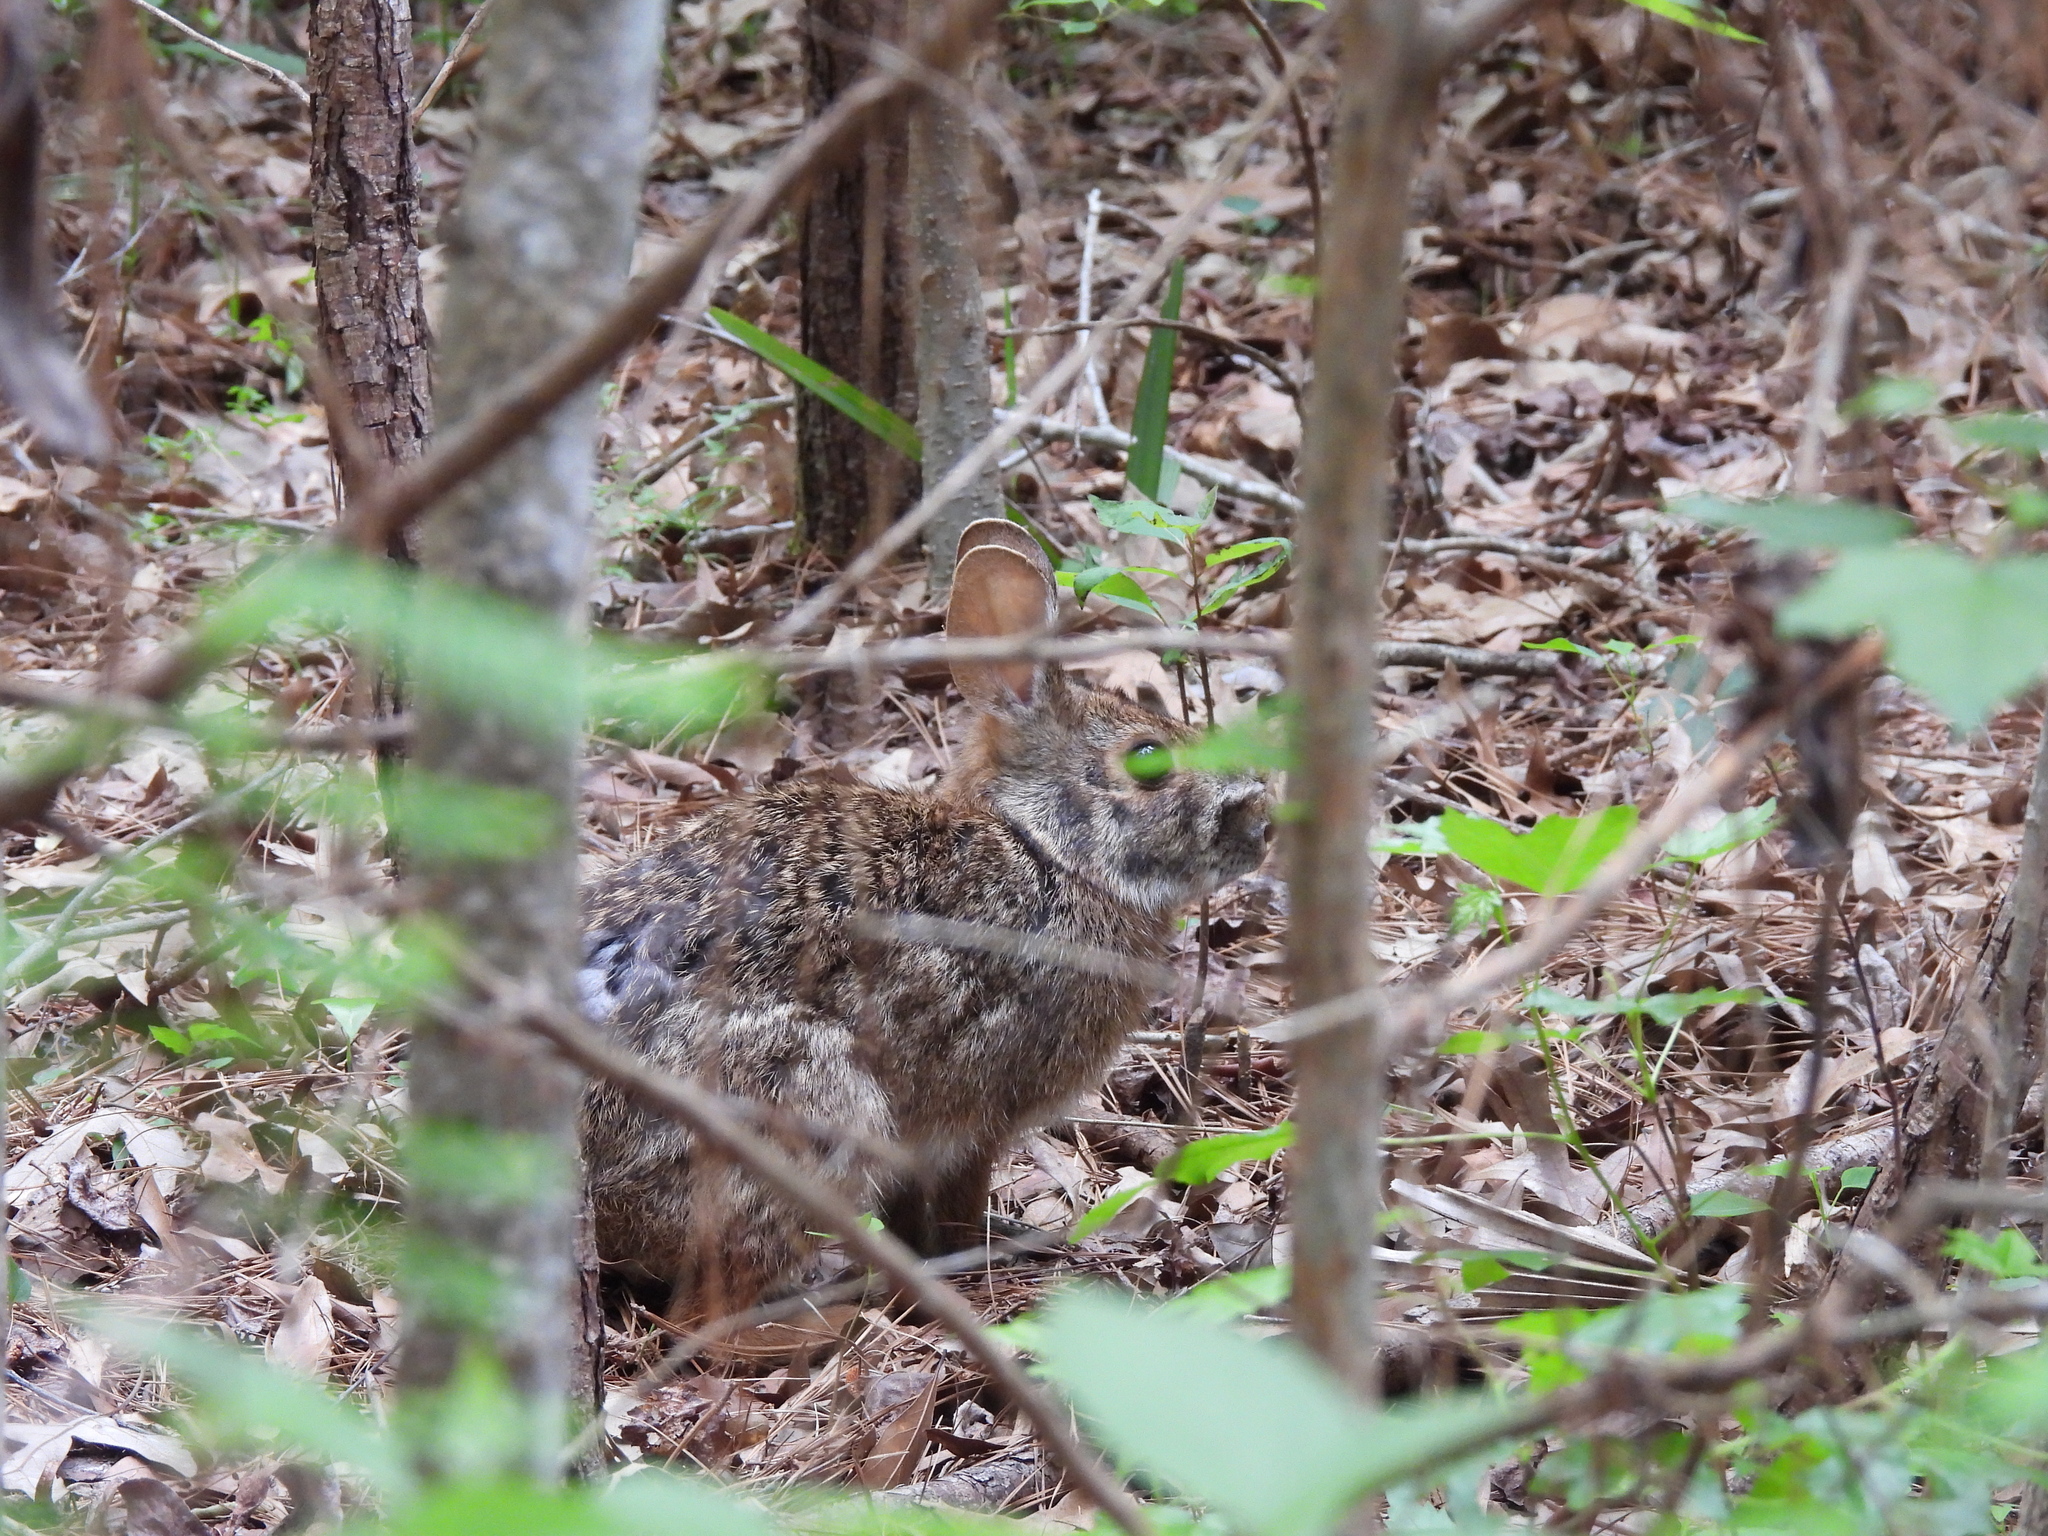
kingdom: Animalia
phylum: Chordata
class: Mammalia
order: Lagomorpha
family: Leporidae
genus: Sylvilagus
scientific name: Sylvilagus aquaticus
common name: Swamp rabbit
